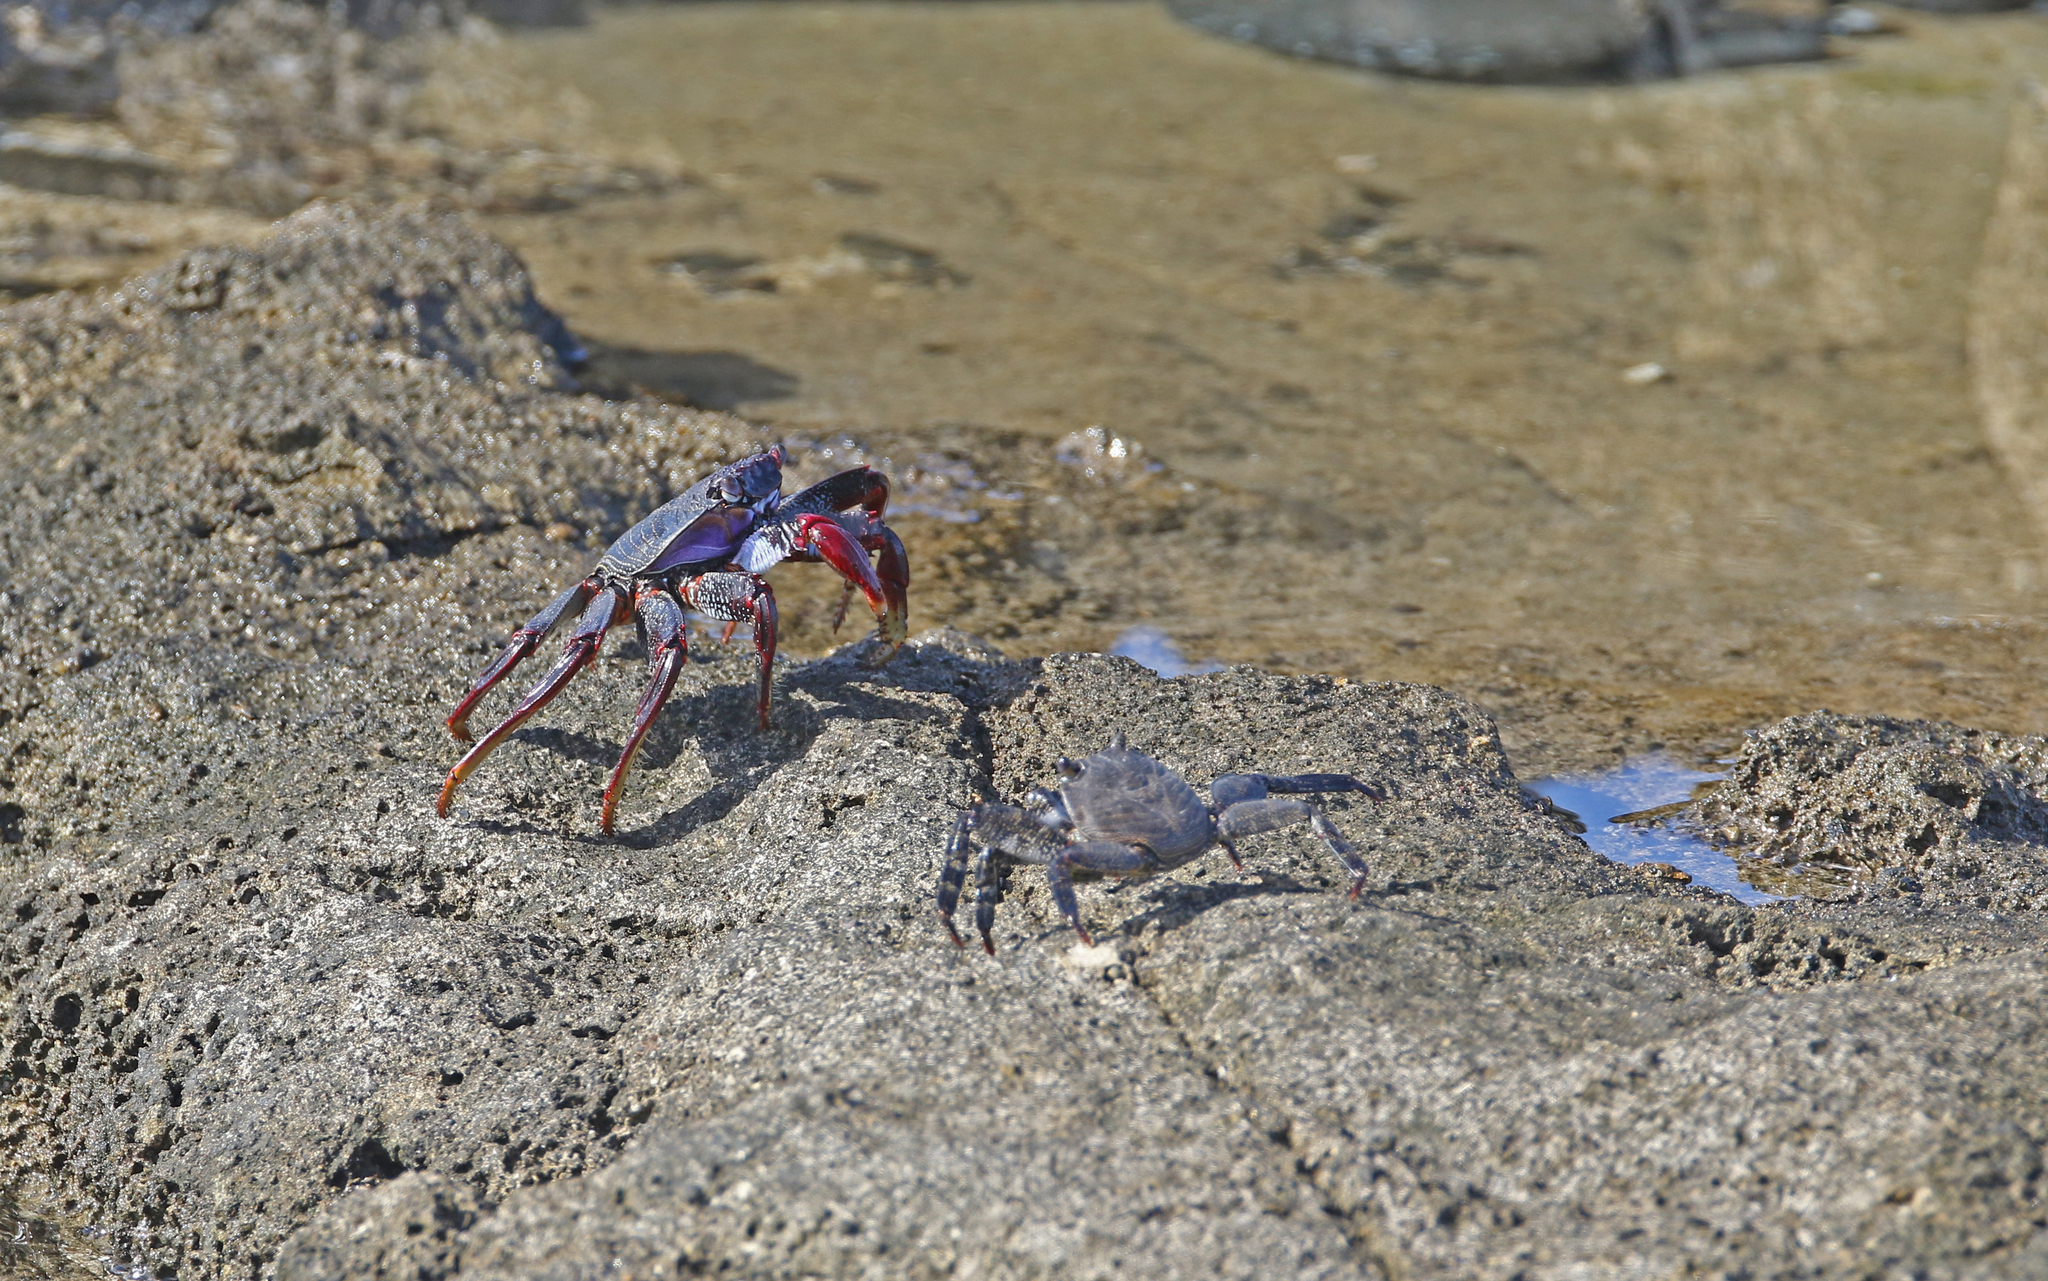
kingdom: Animalia
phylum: Arthropoda
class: Malacostraca
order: Decapoda
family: Grapsidae
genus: Grapsus
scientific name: Grapsus adscensionis
